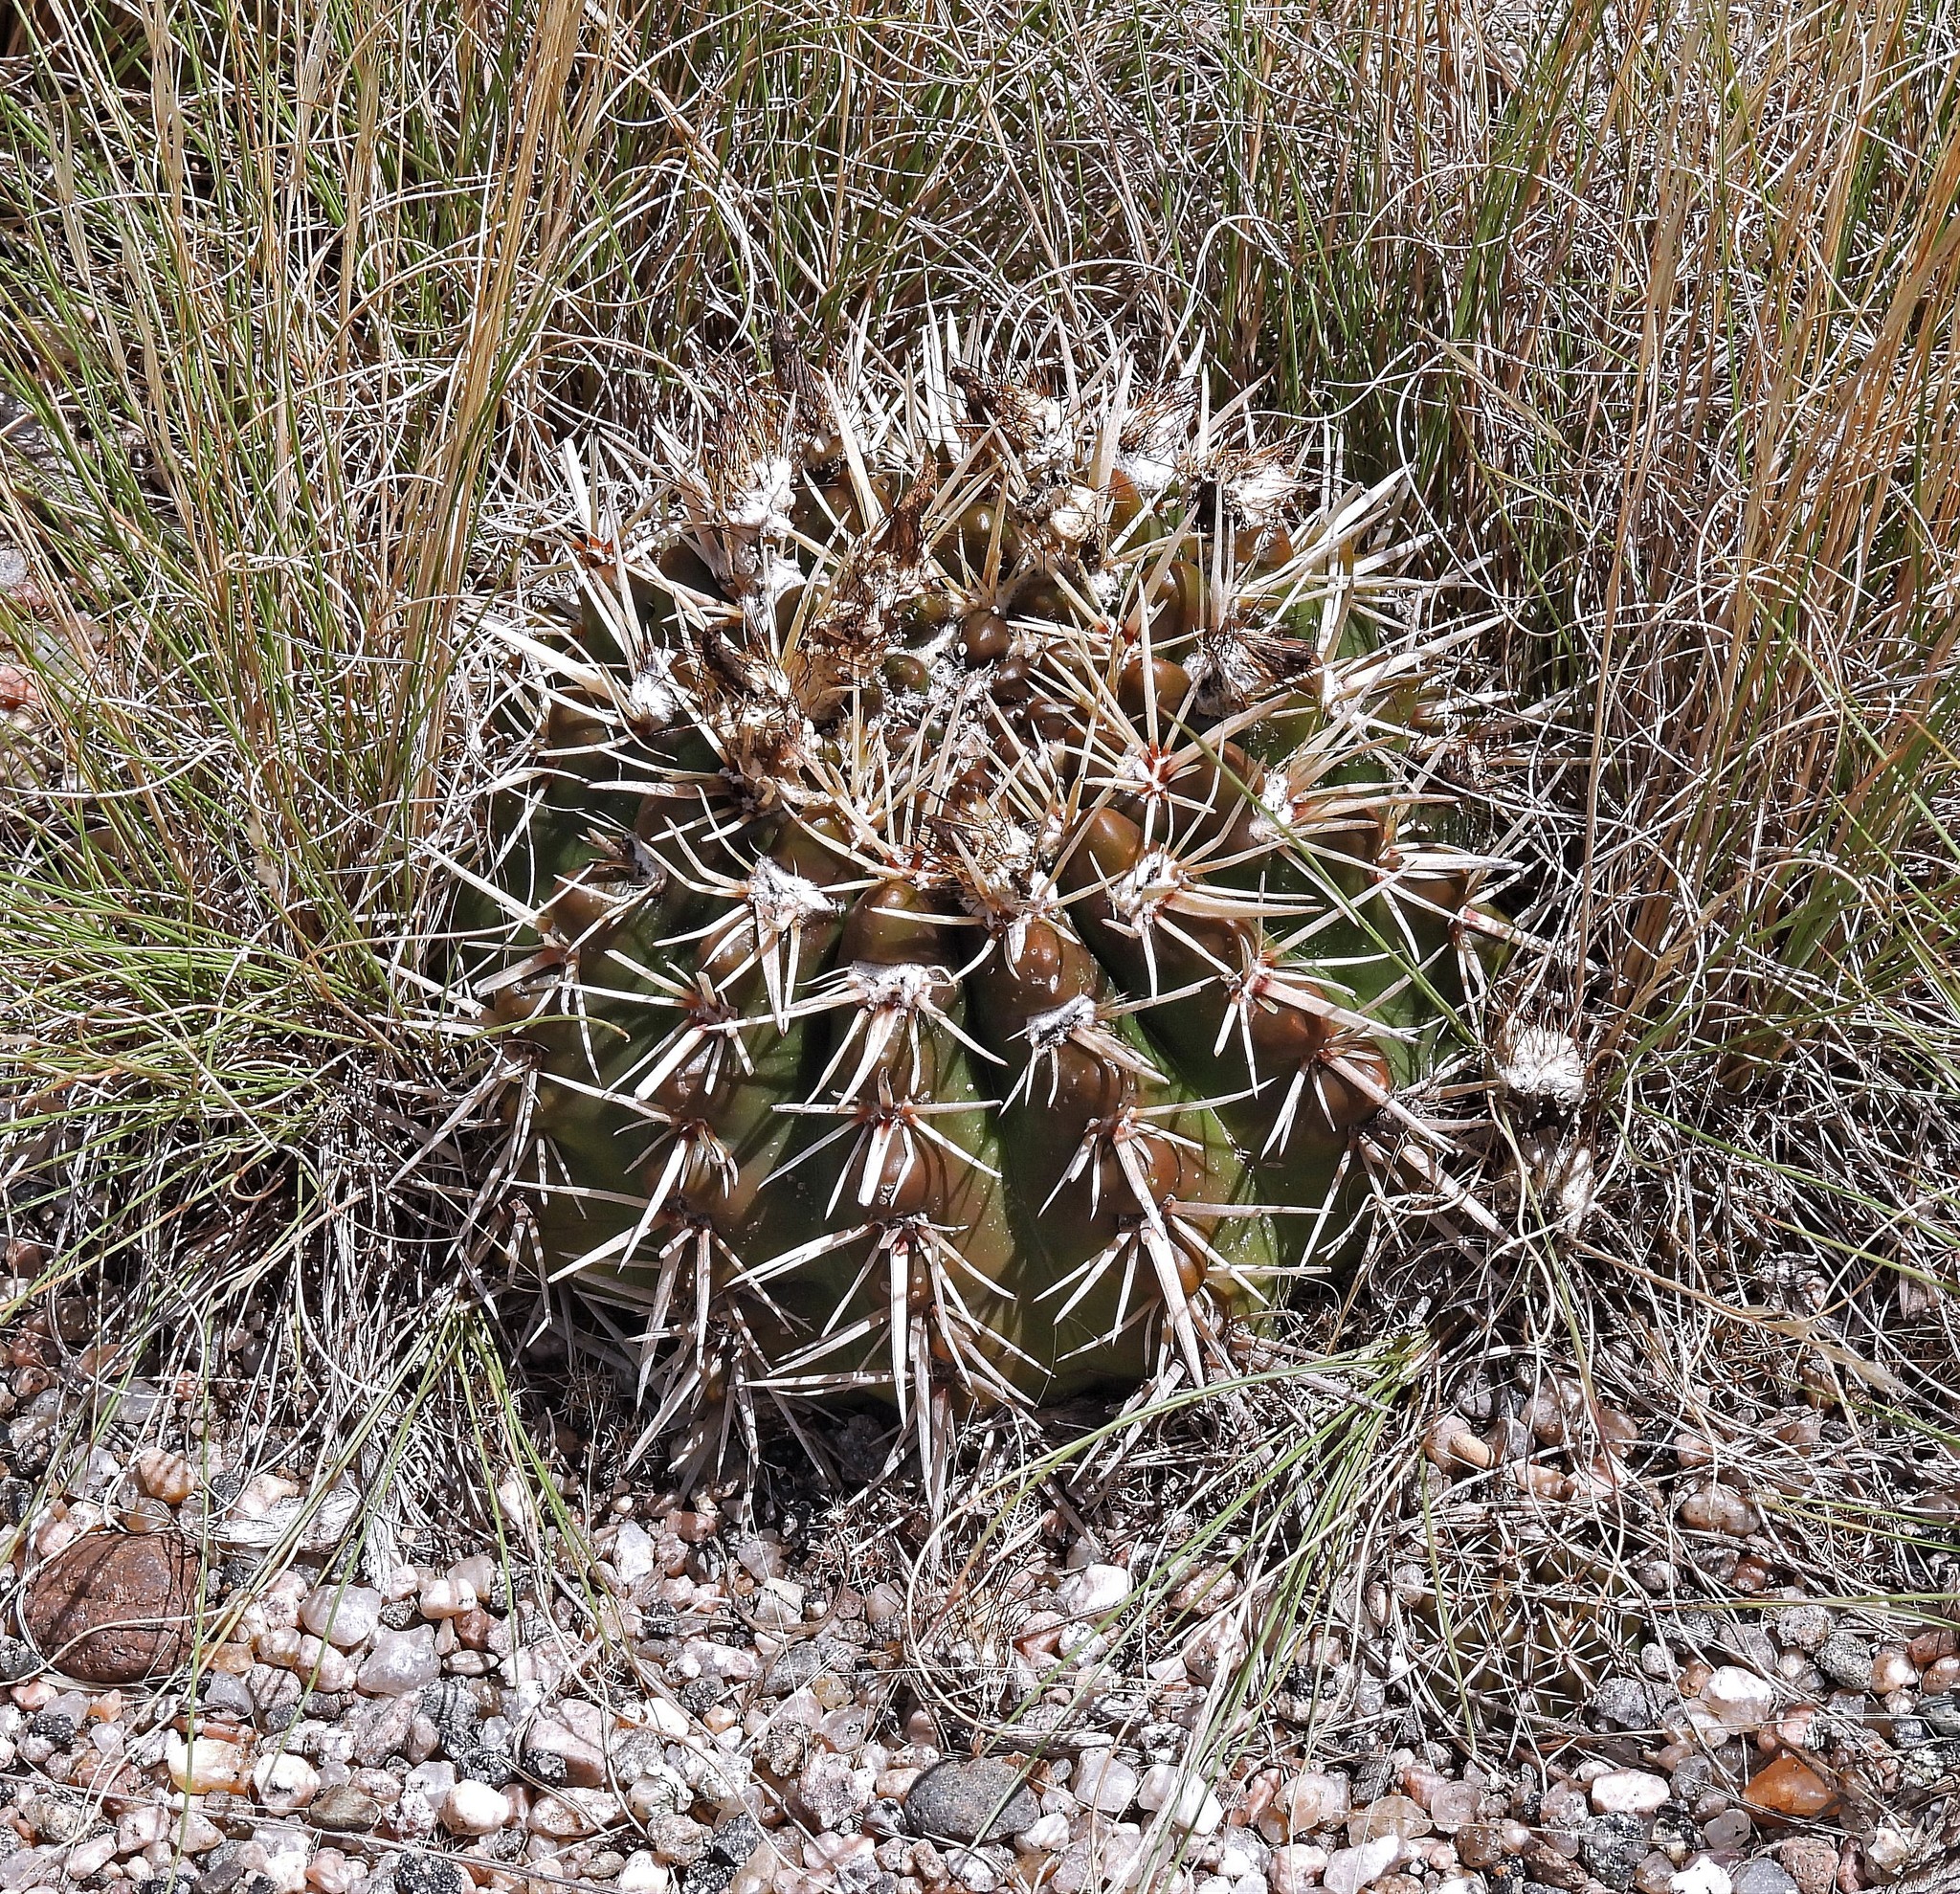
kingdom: Plantae
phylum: Tracheophyta
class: Magnoliopsida
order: Caryophyllales
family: Cactaceae
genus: Parodia
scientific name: Parodia mammulosa
